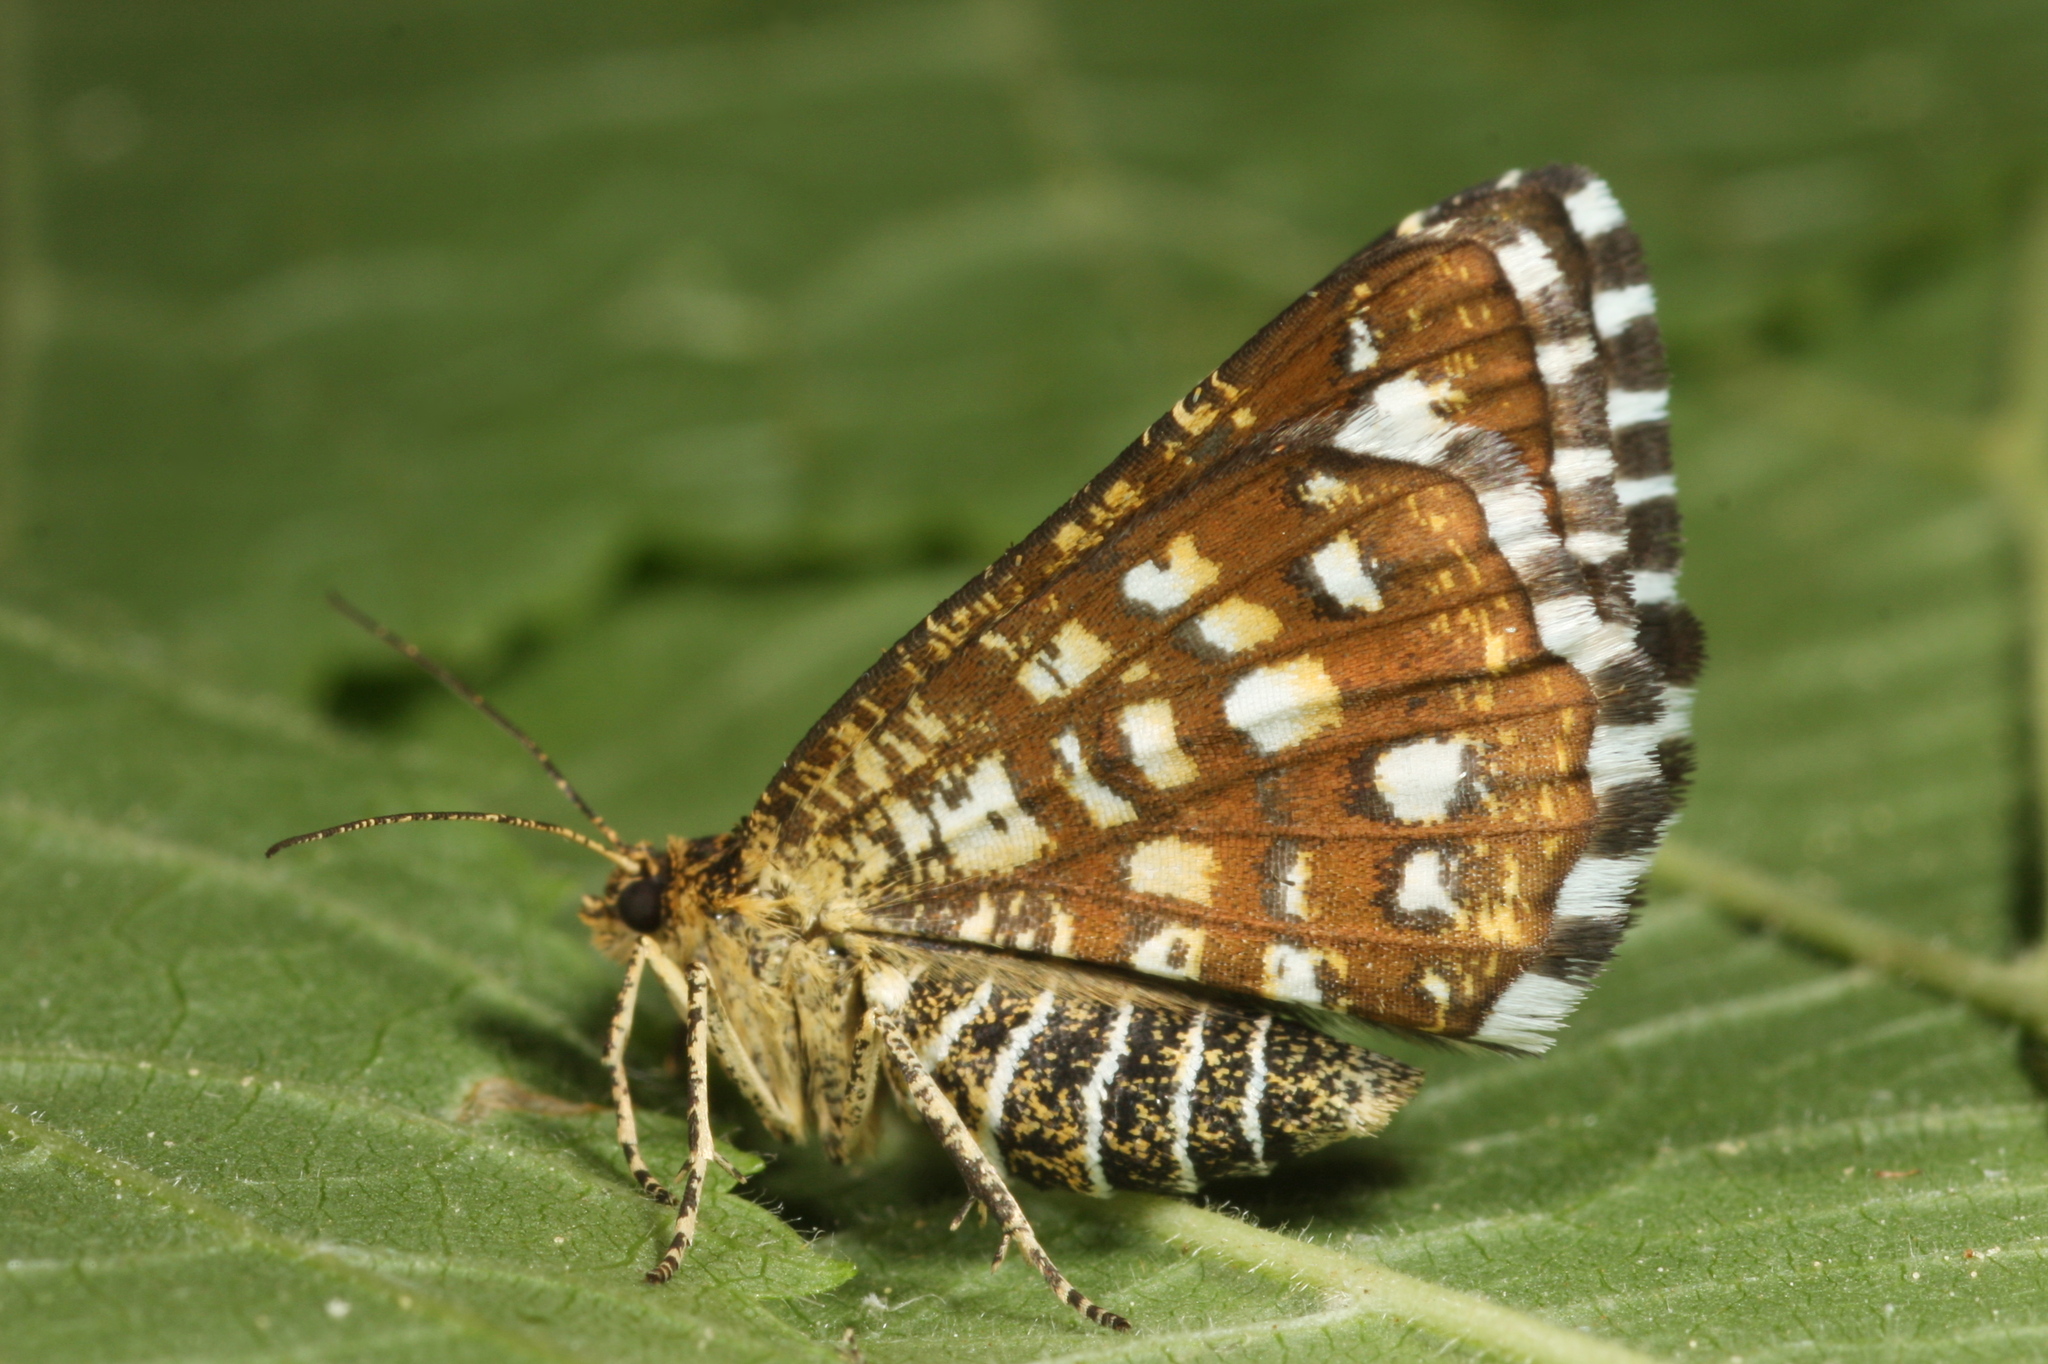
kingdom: Animalia
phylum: Arthropoda
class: Insecta
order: Lepidoptera
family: Geometridae
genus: Chiasmia
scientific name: Chiasmia clathrata
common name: Latticed heath
